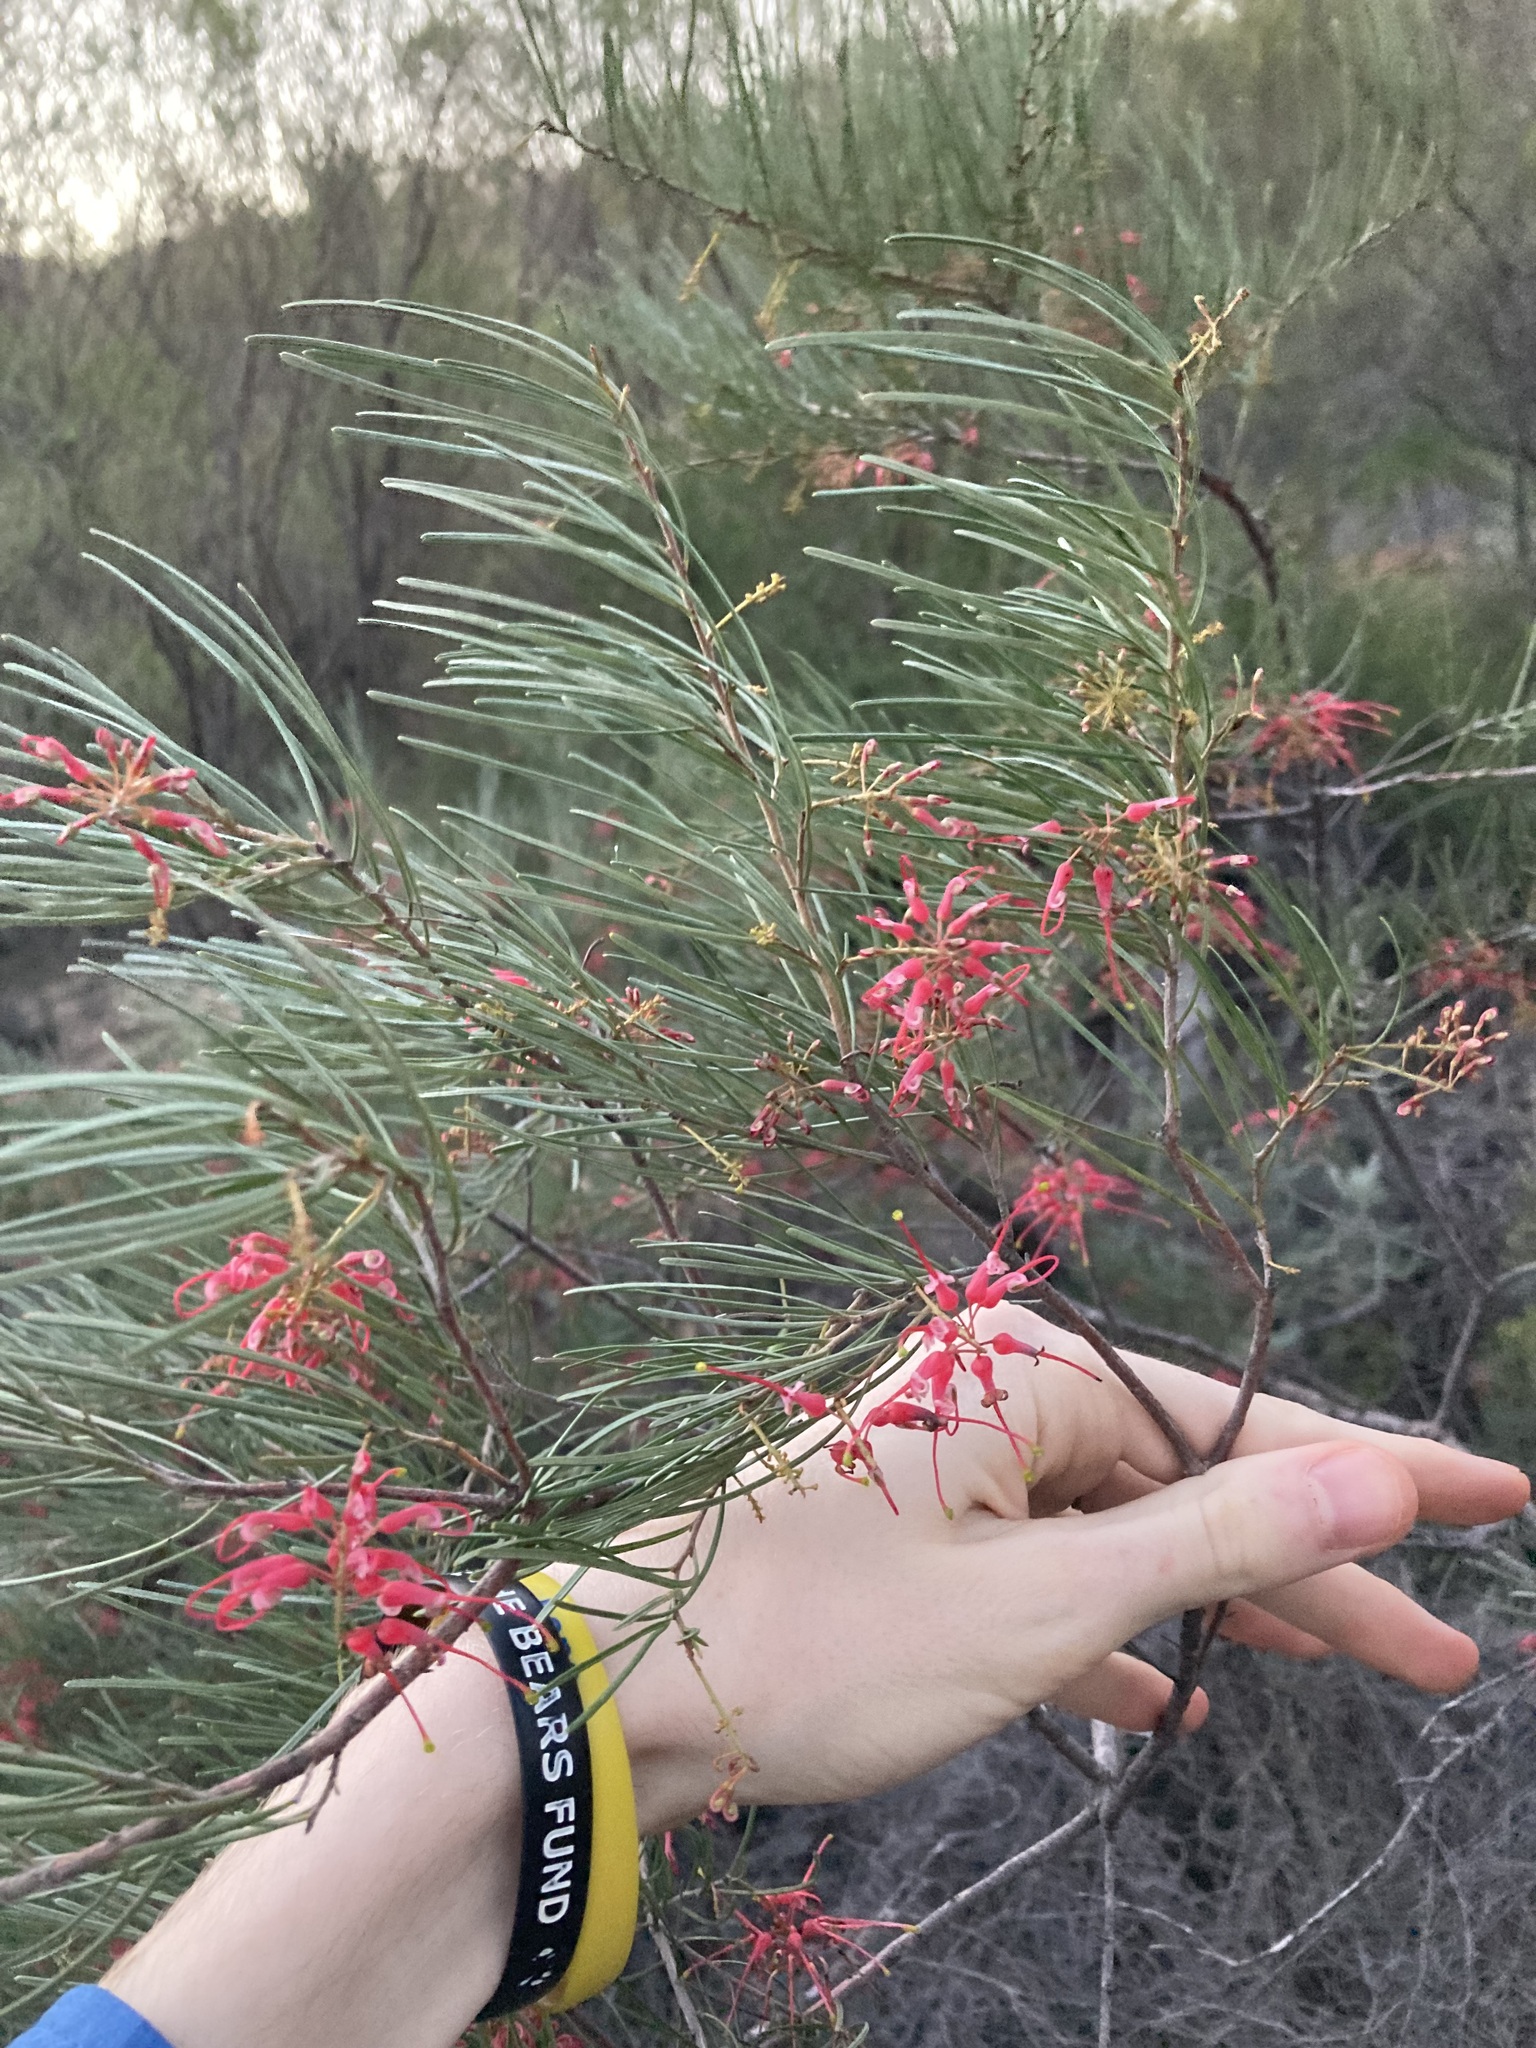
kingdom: Plantae
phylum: Tracheophyta
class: Magnoliopsida
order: Proteales
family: Proteaceae
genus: Grevillea
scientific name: Grevillea pinaster
